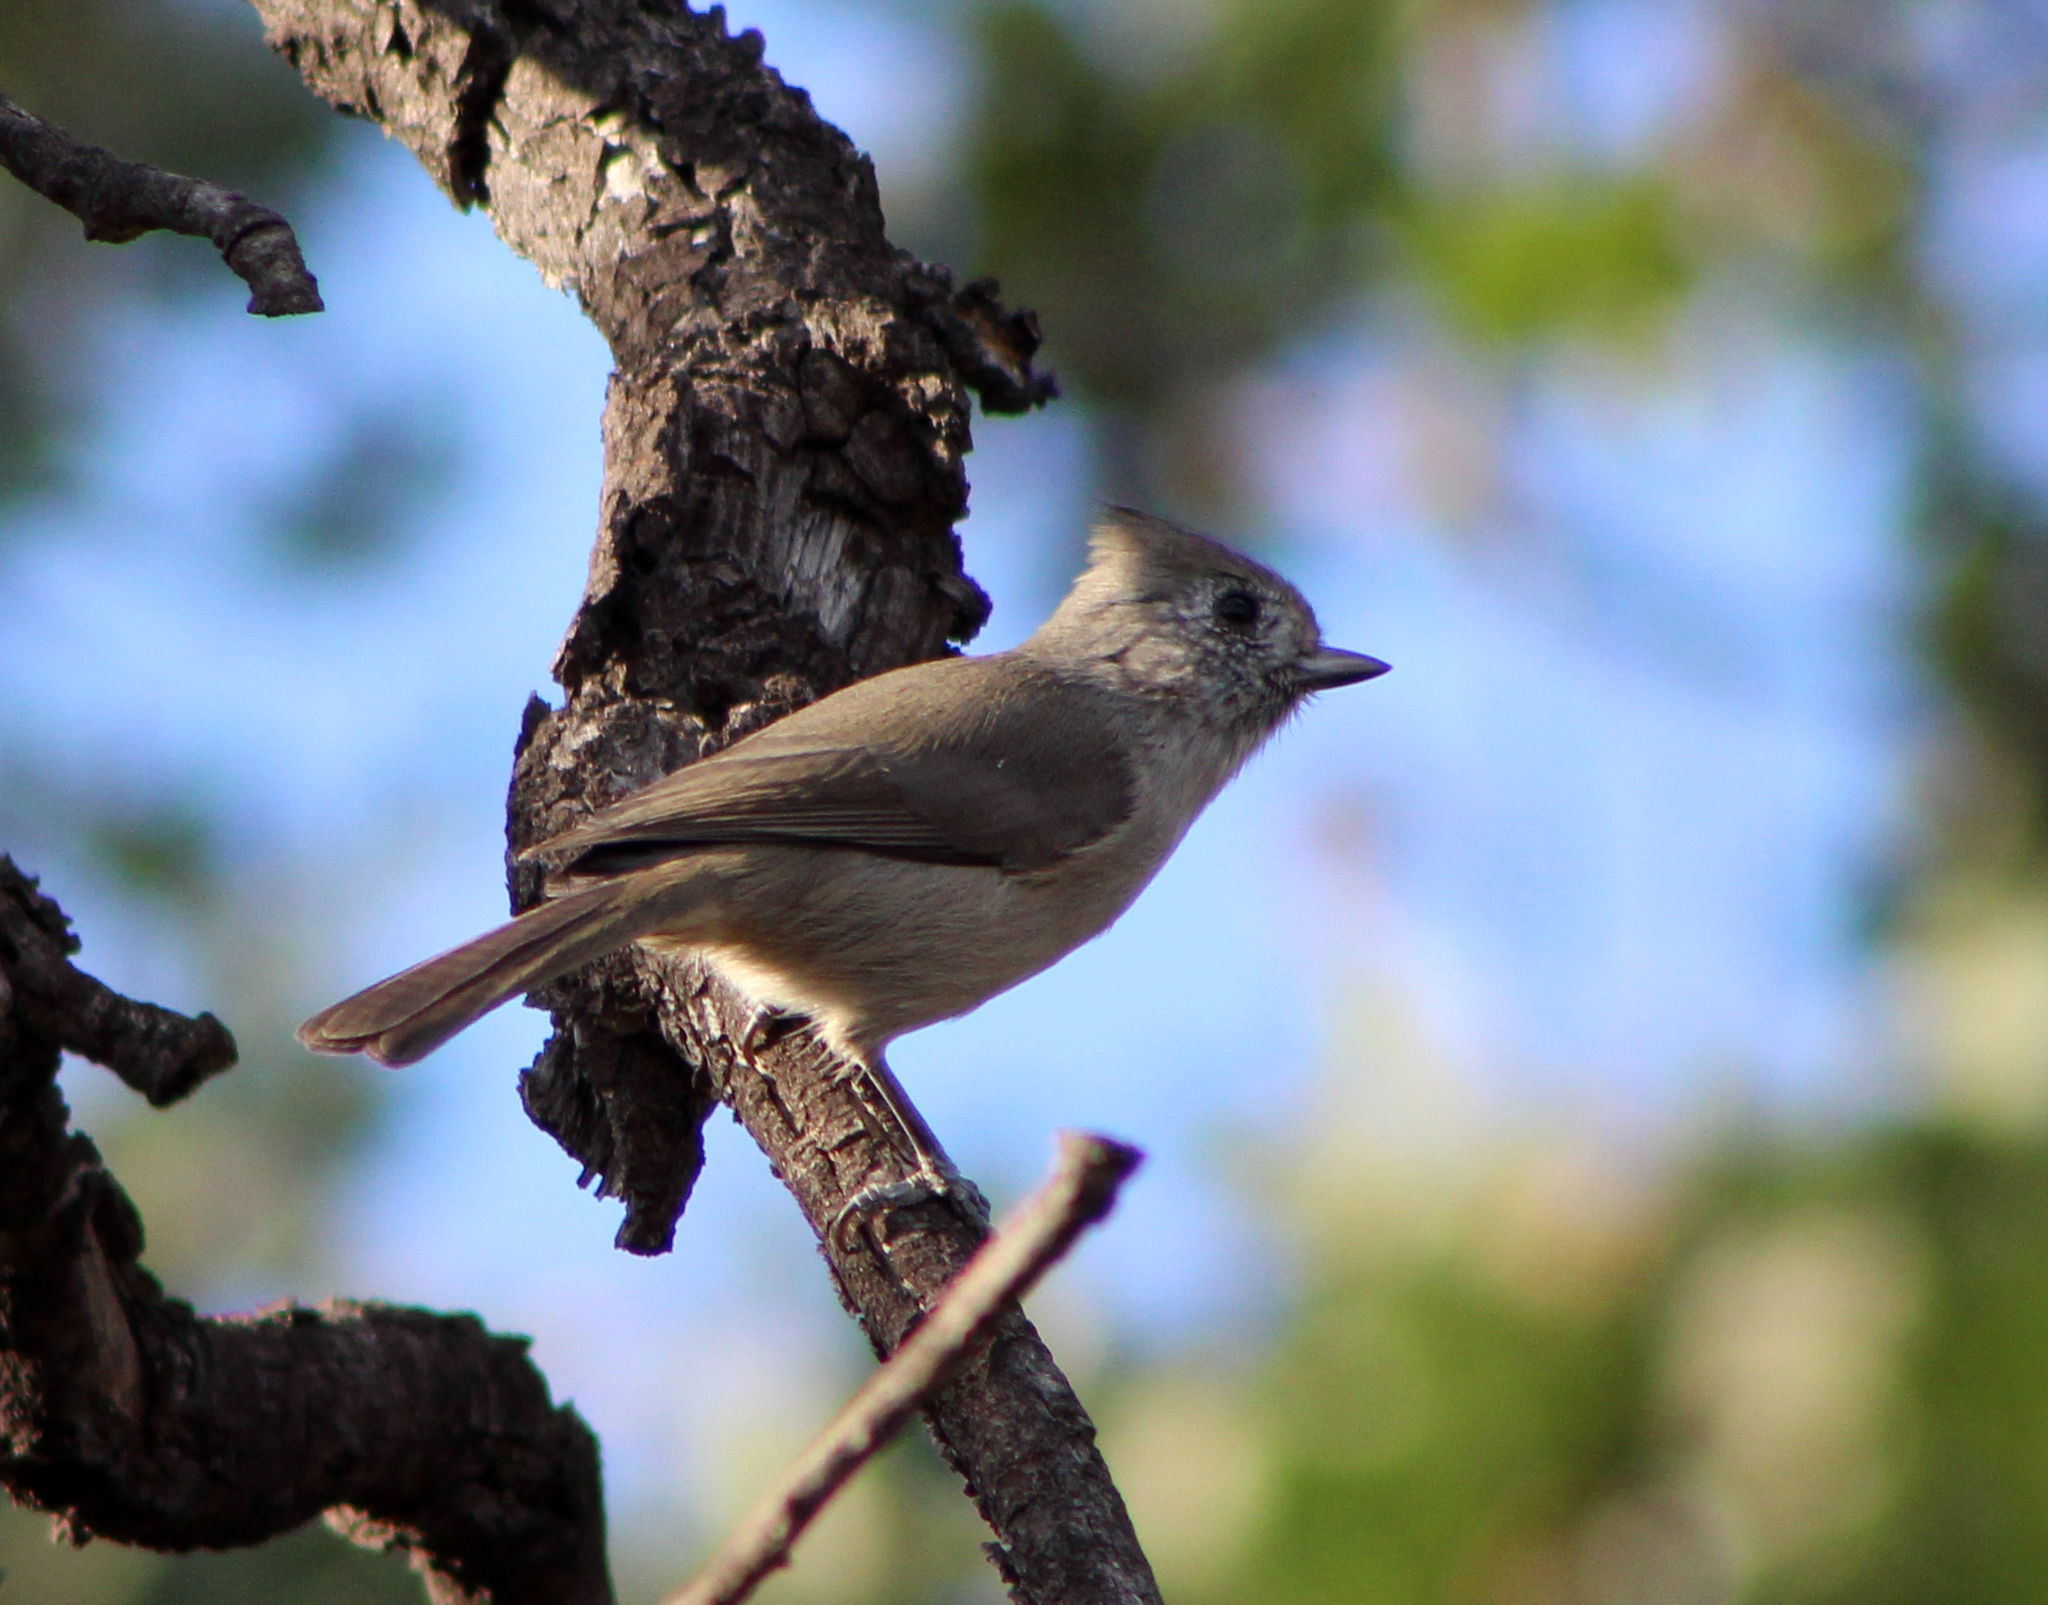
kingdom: Animalia
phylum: Chordata
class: Aves
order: Passeriformes
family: Paridae
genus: Baeolophus
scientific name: Baeolophus inornatus
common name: Oak titmouse
